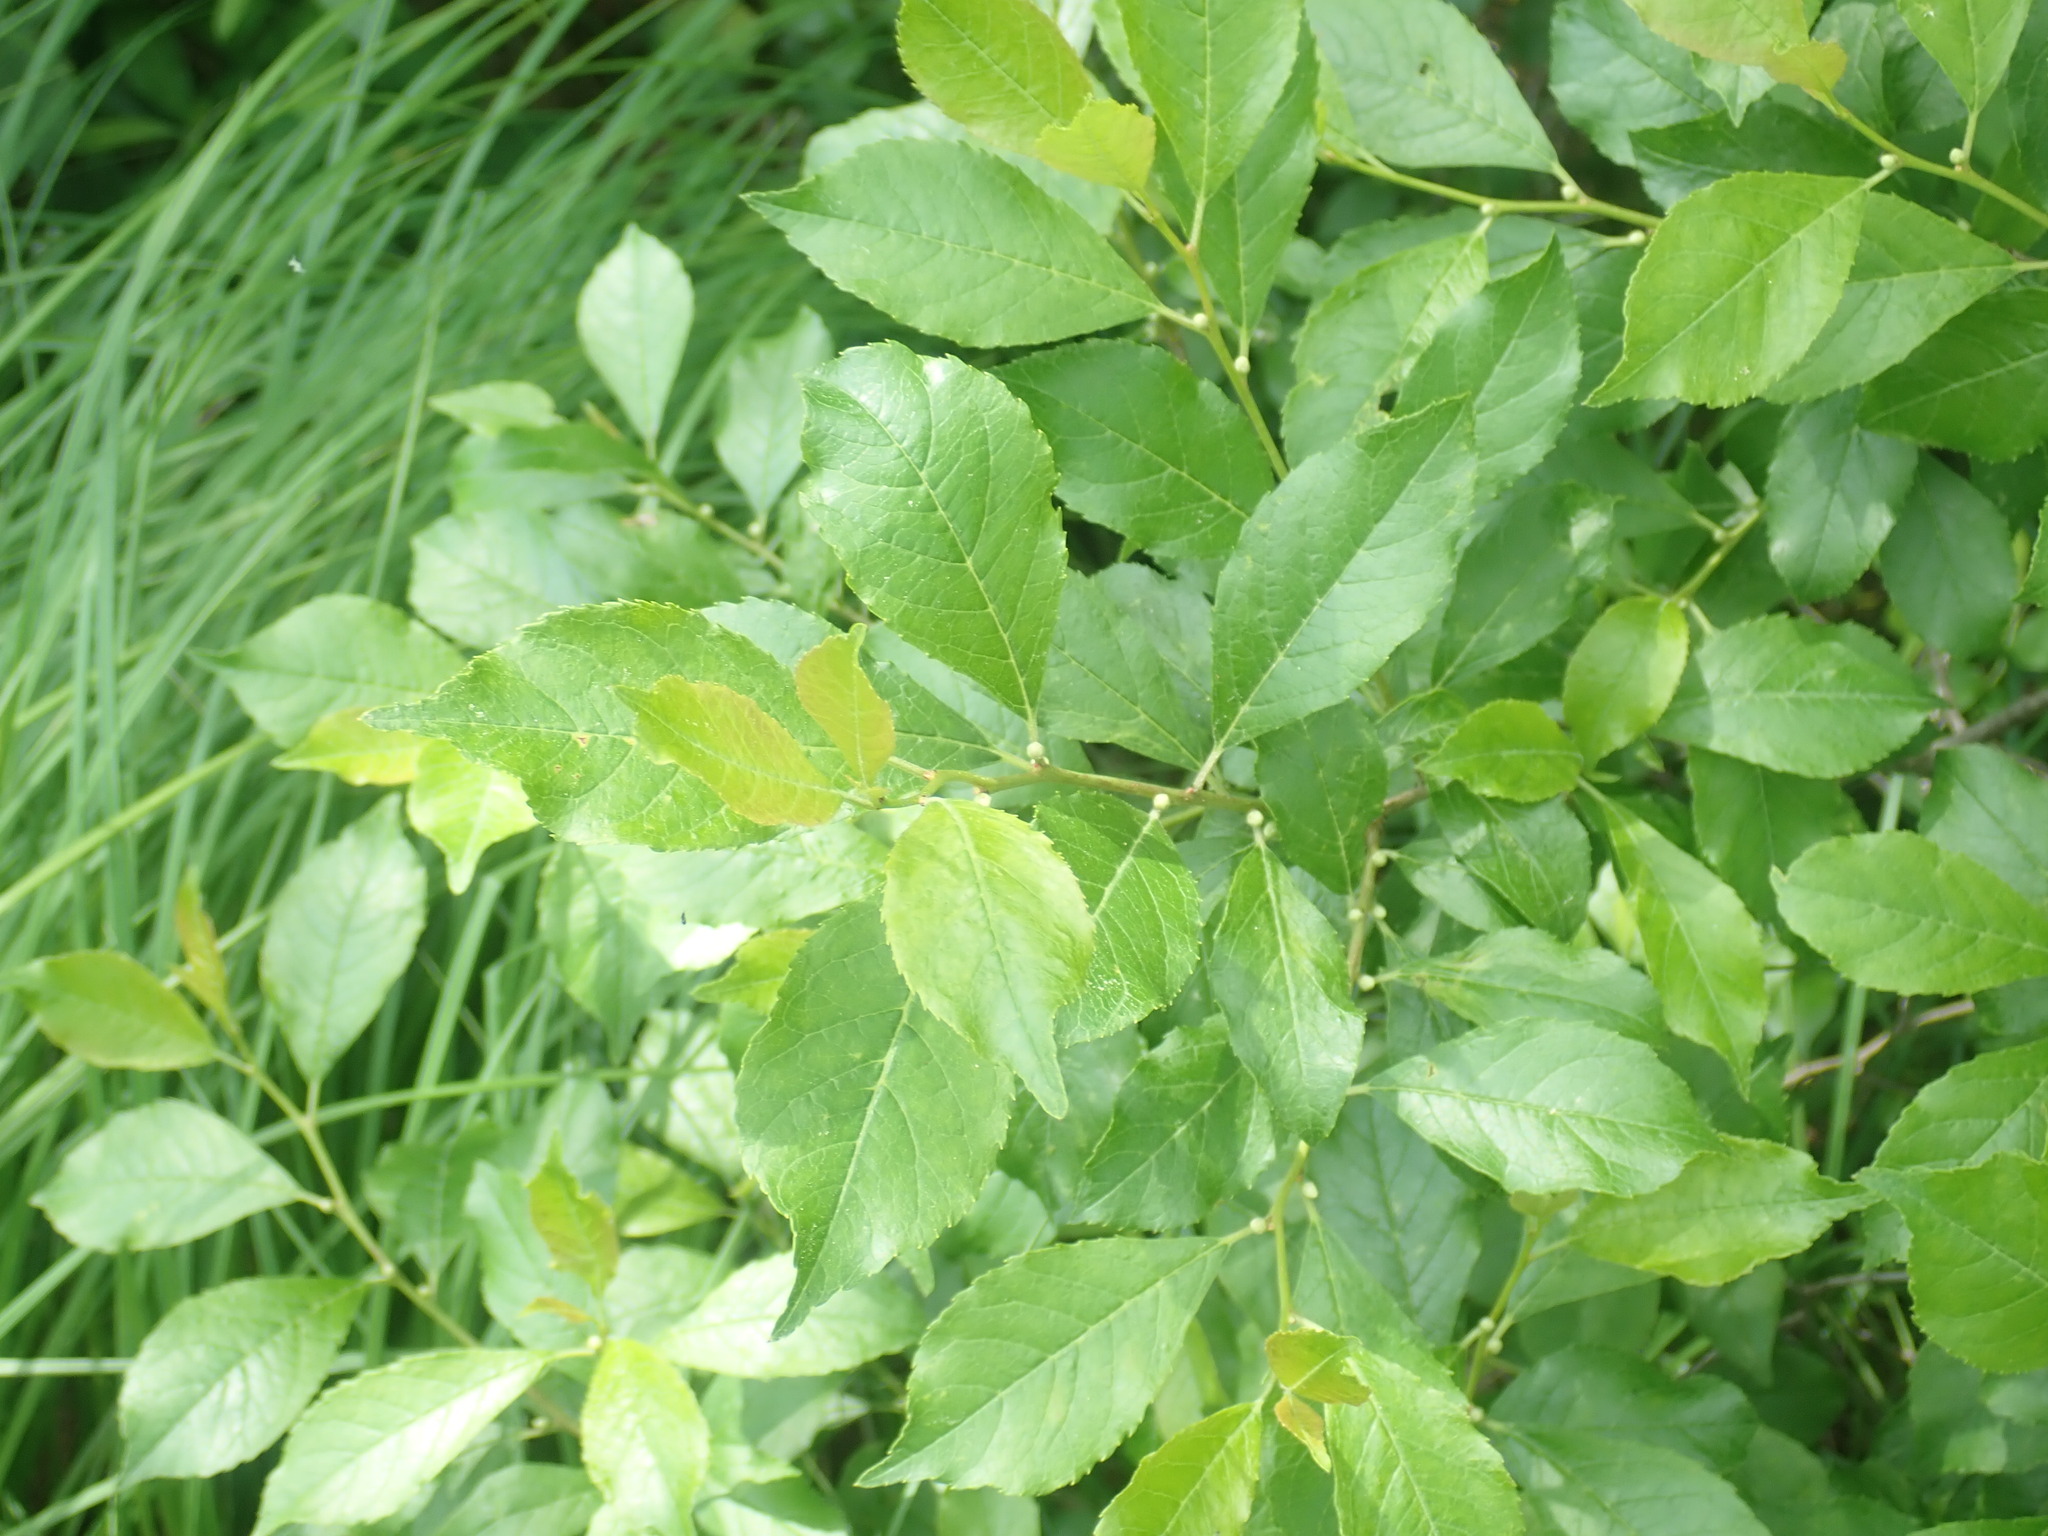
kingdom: Plantae
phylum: Tracheophyta
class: Magnoliopsida
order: Aquifoliales
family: Aquifoliaceae
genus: Ilex
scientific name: Ilex verticillata
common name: Virginia winterberry
